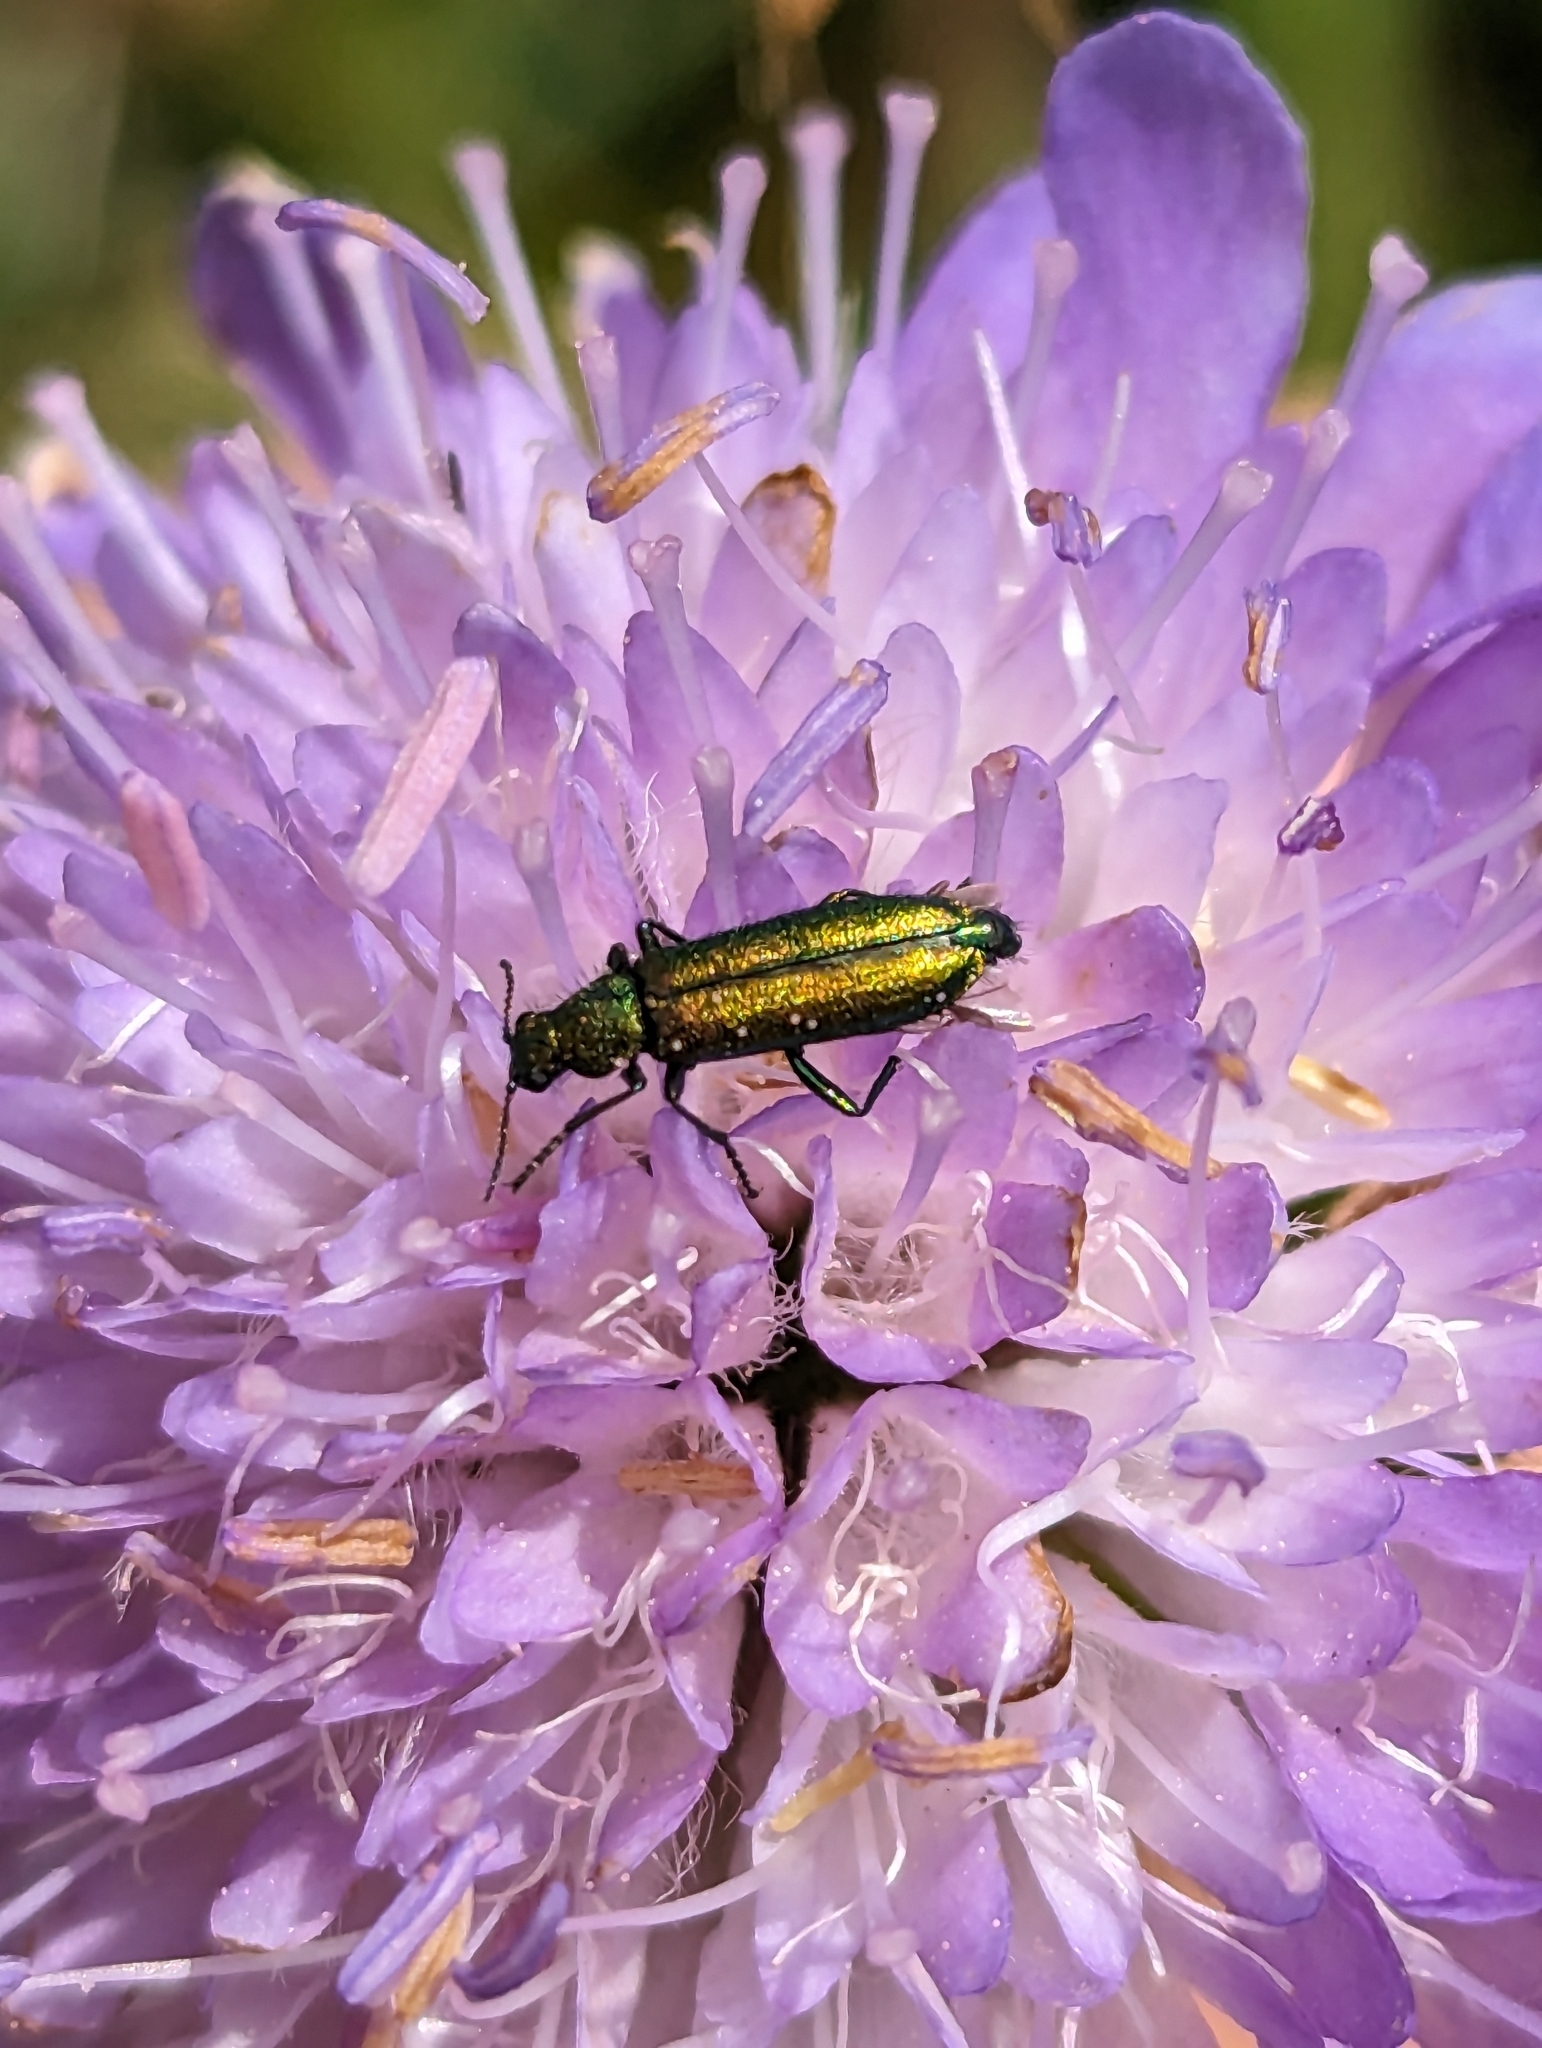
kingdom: Animalia
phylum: Arthropoda
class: Insecta
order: Coleoptera
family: Dasytidae
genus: Psilothrix
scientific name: Psilothrix viridicoerulea
